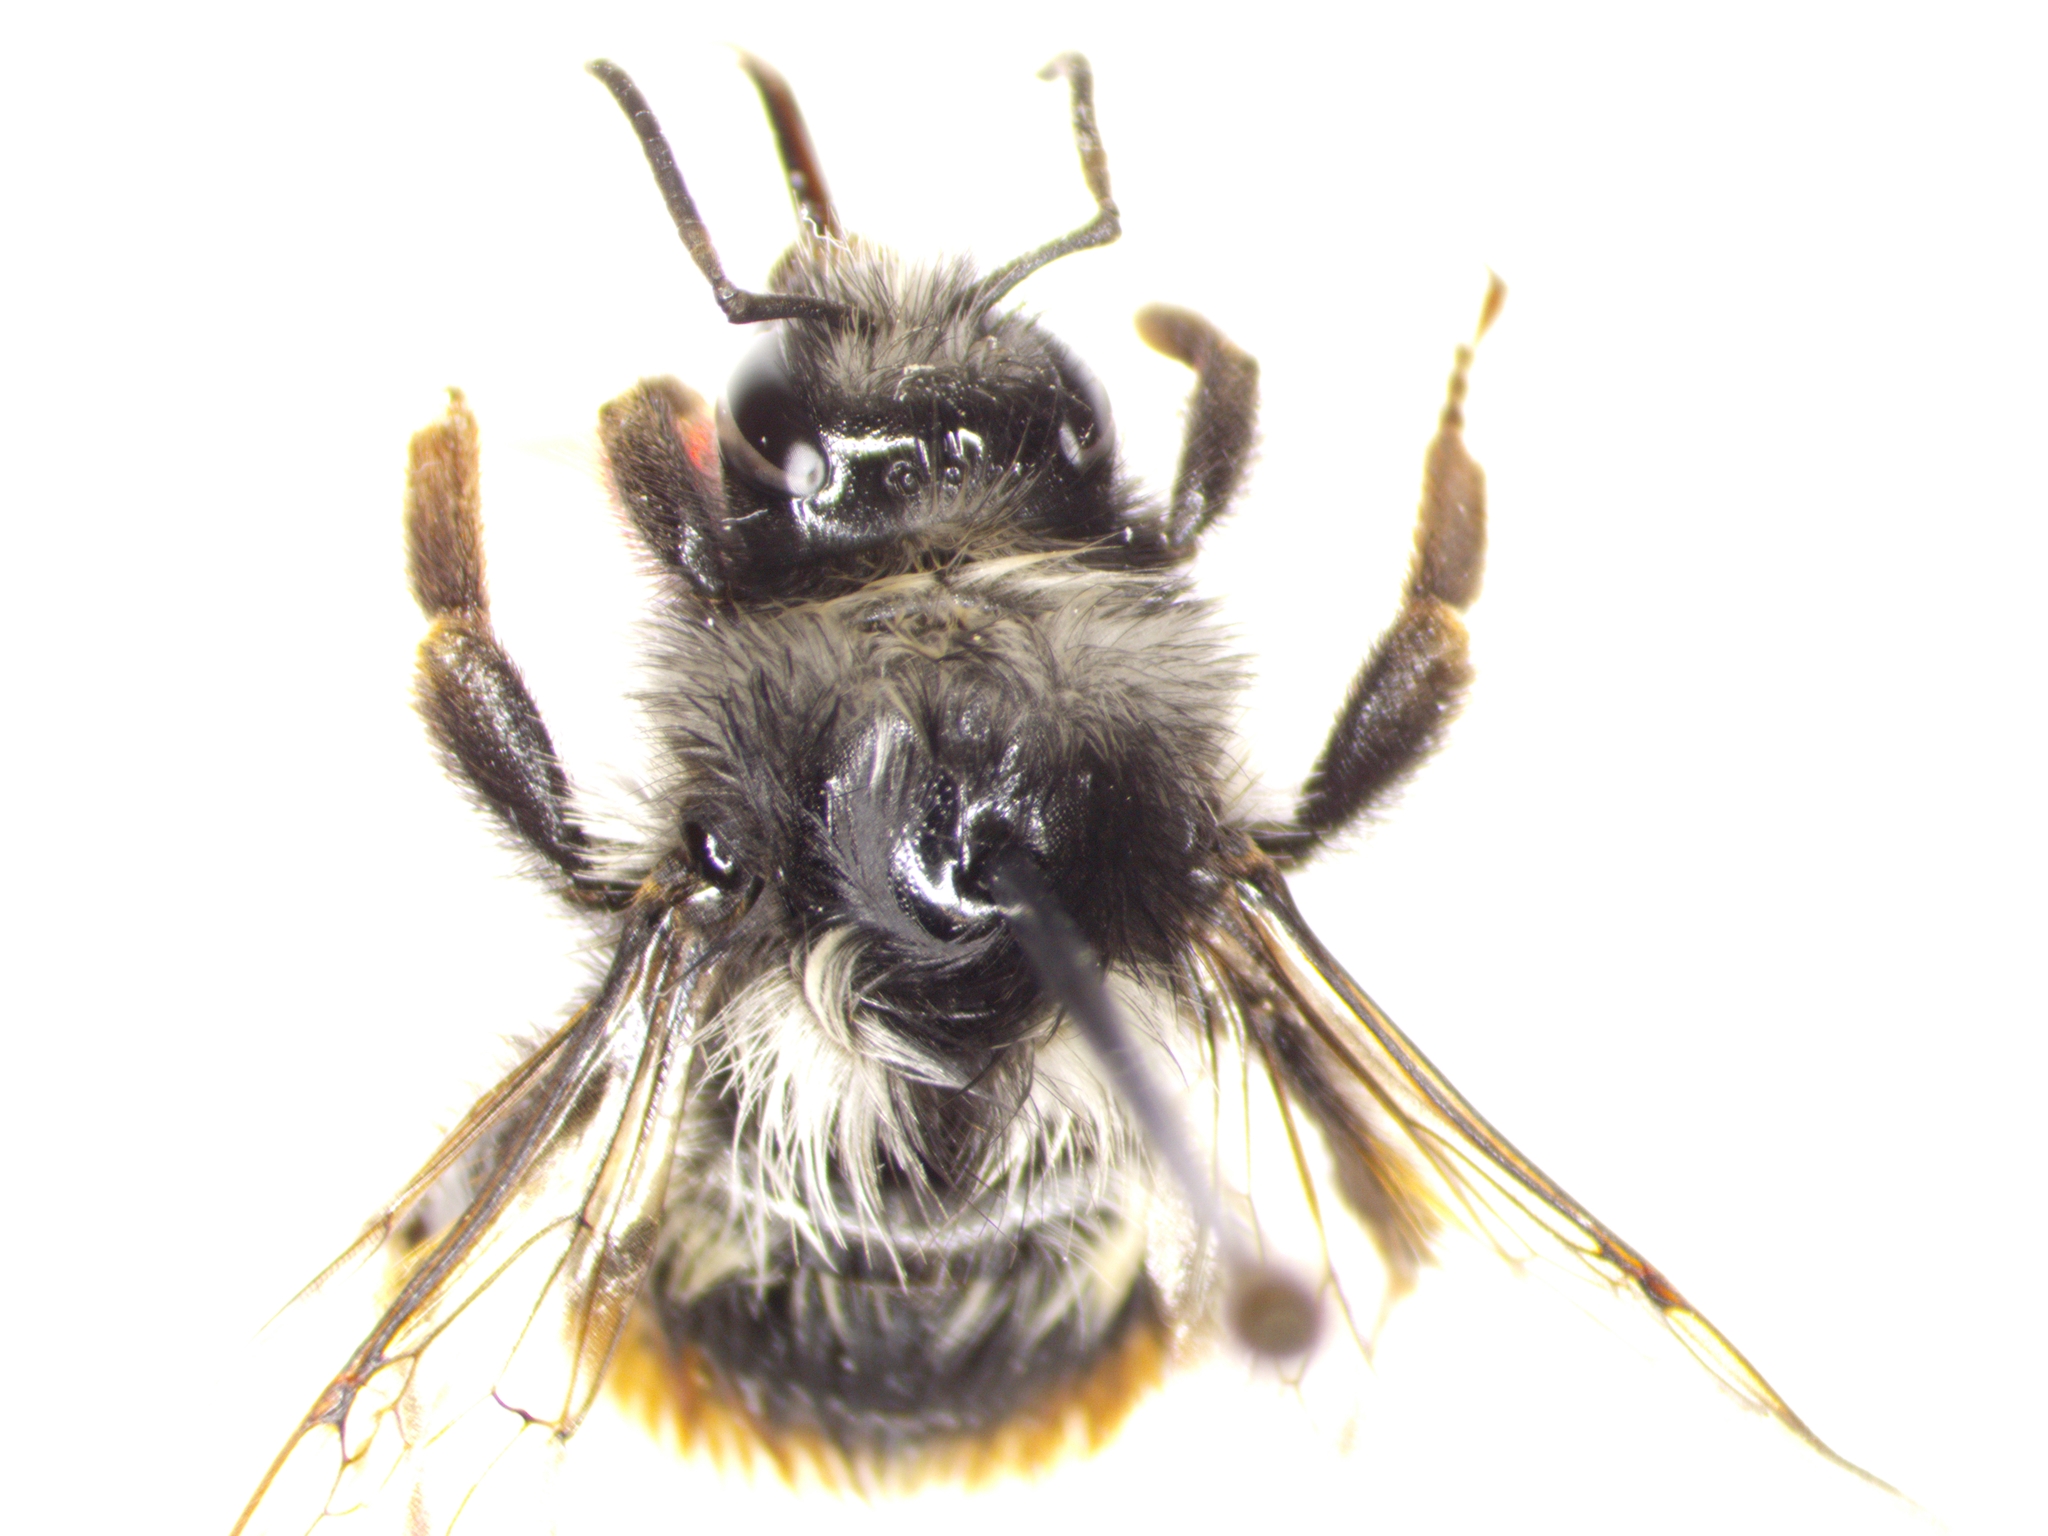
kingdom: Animalia
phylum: Arthropoda
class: Insecta
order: Hymenoptera
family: Apidae
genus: Bombus
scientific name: Bombus vancouverensis
